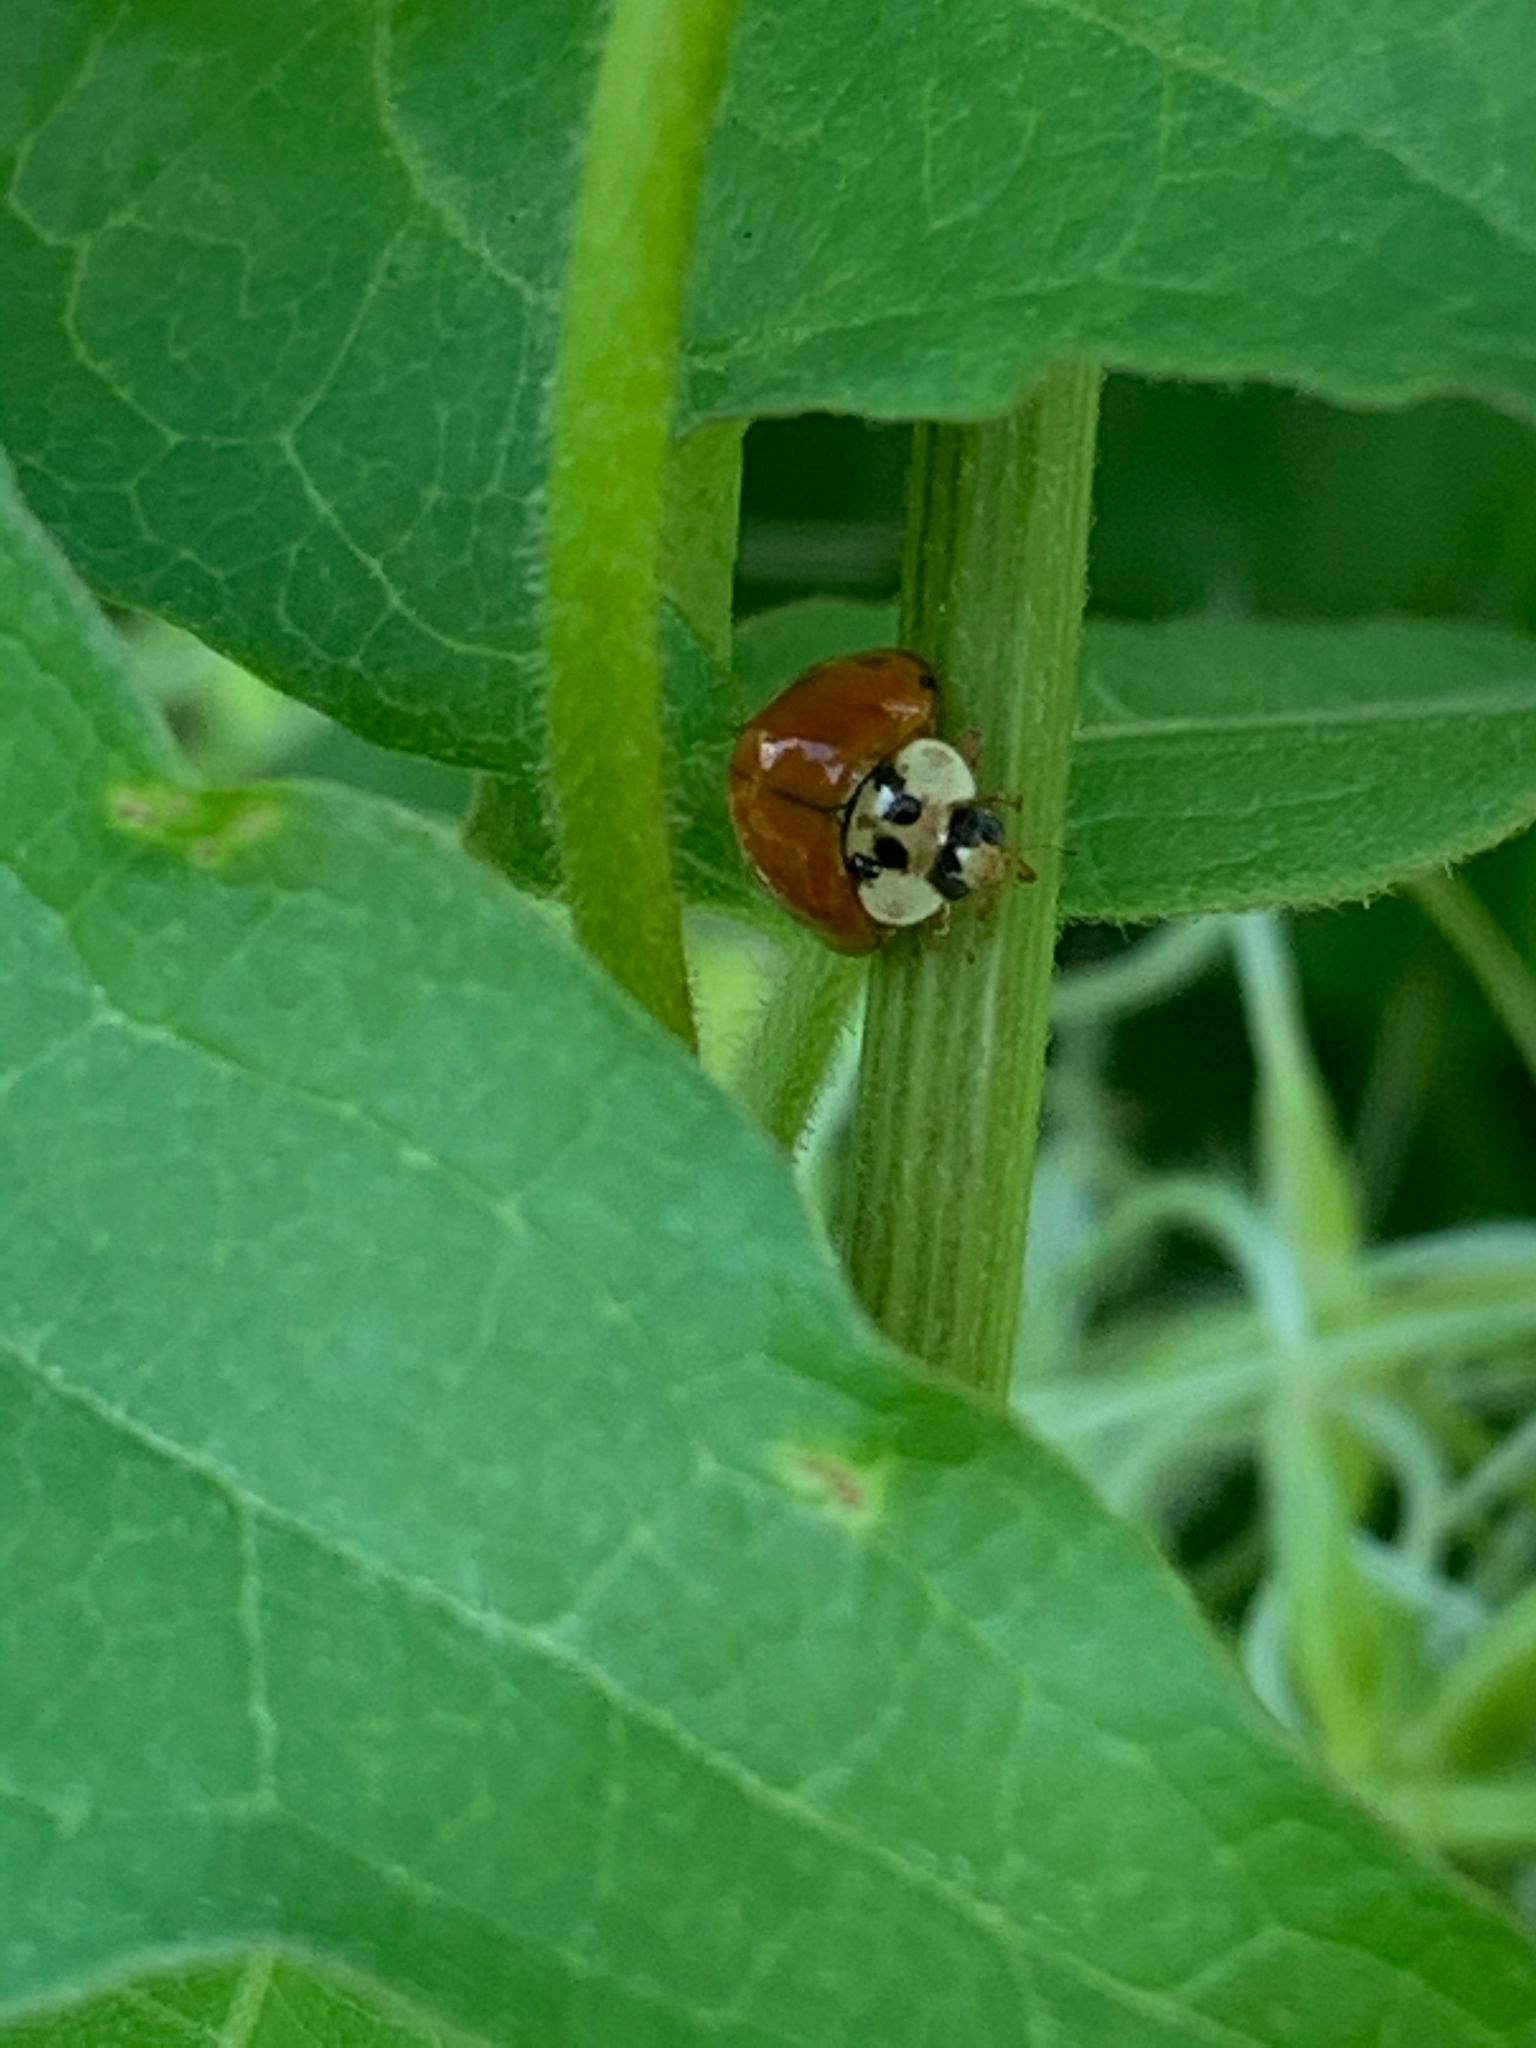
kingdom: Animalia
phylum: Arthropoda
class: Insecta
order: Coleoptera
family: Coccinellidae
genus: Harmonia
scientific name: Harmonia axyridis
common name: Harlequin ladybird
